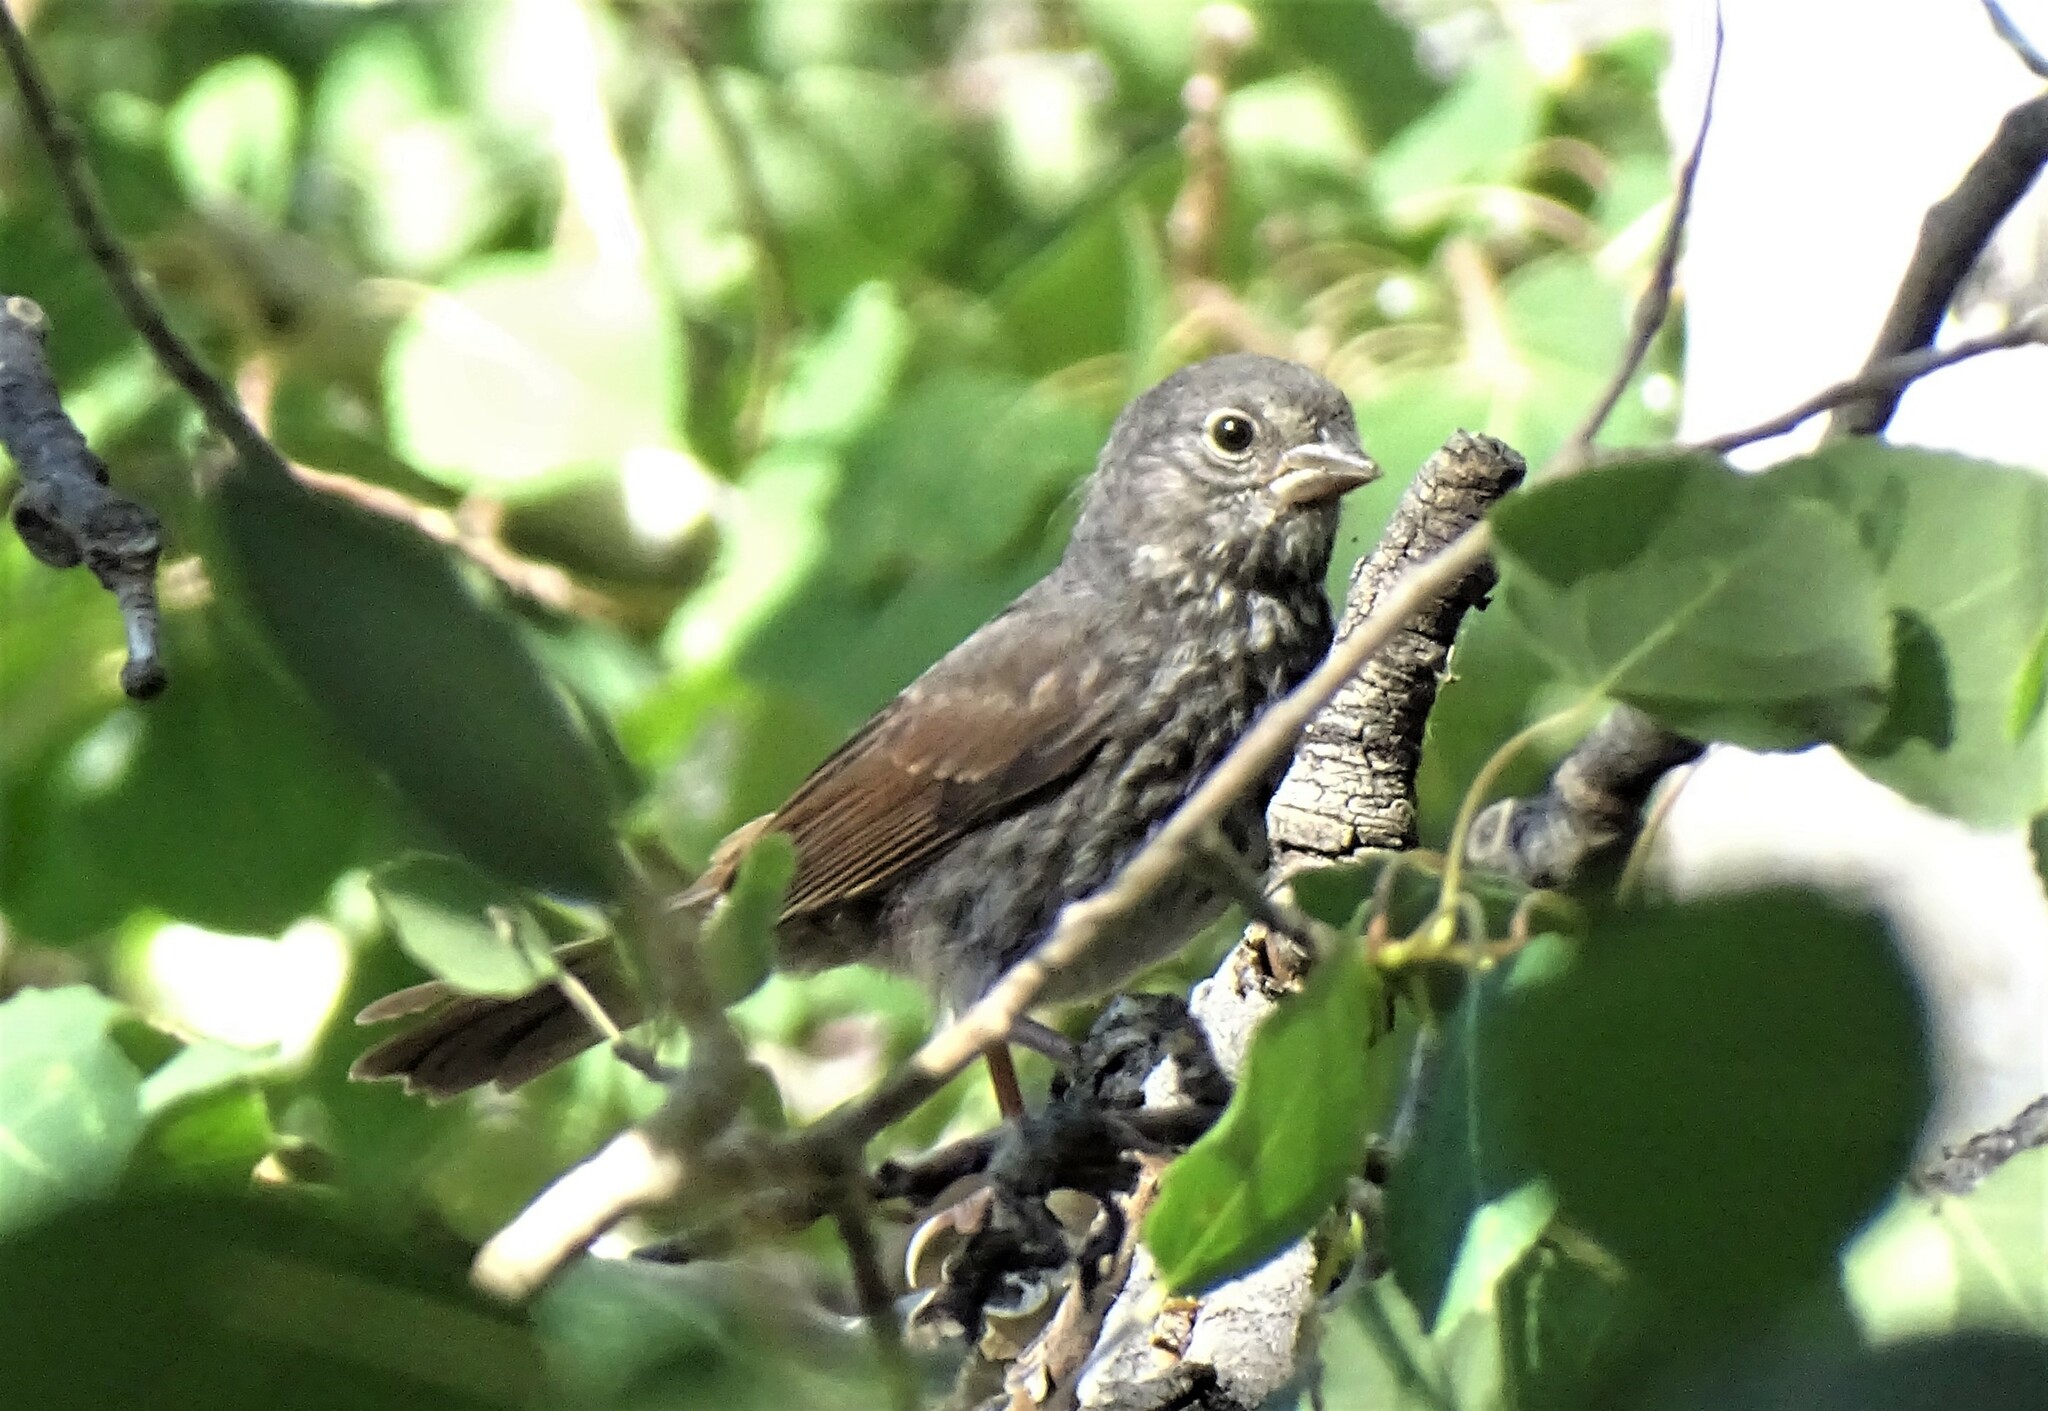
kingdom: Animalia
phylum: Chordata
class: Aves
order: Passeriformes
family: Passerellidae
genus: Passerella
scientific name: Passerella iliaca
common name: Fox sparrow
